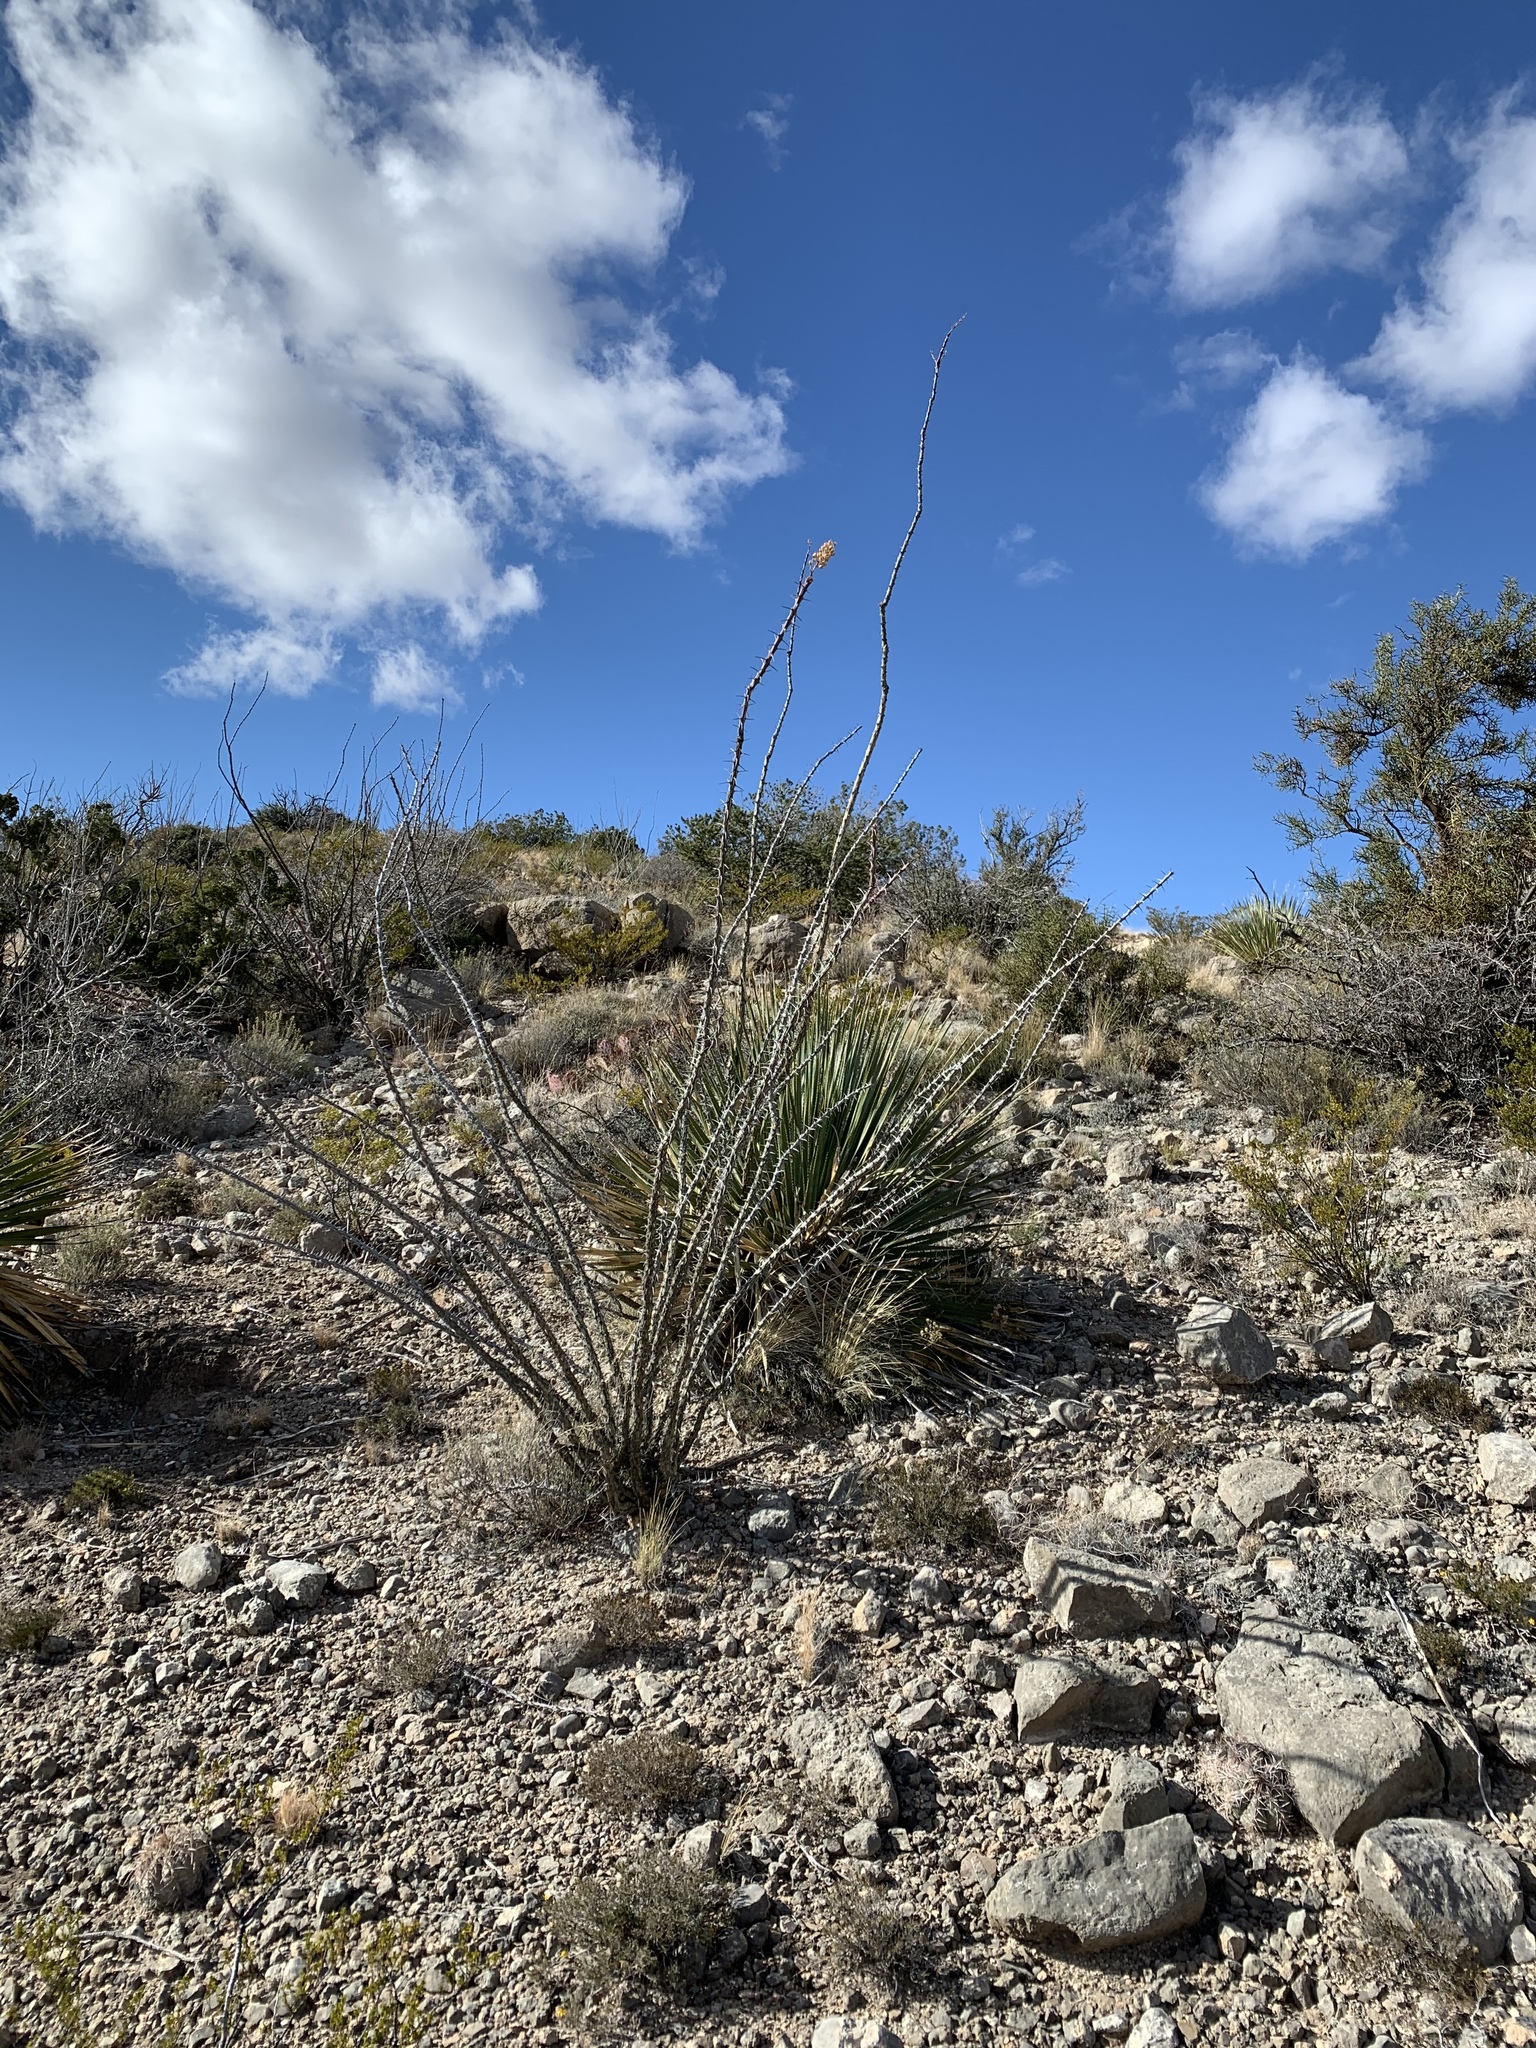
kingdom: Plantae
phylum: Tracheophyta
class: Magnoliopsida
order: Ericales
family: Fouquieriaceae
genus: Fouquieria
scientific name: Fouquieria splendens
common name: Vine-cactus
